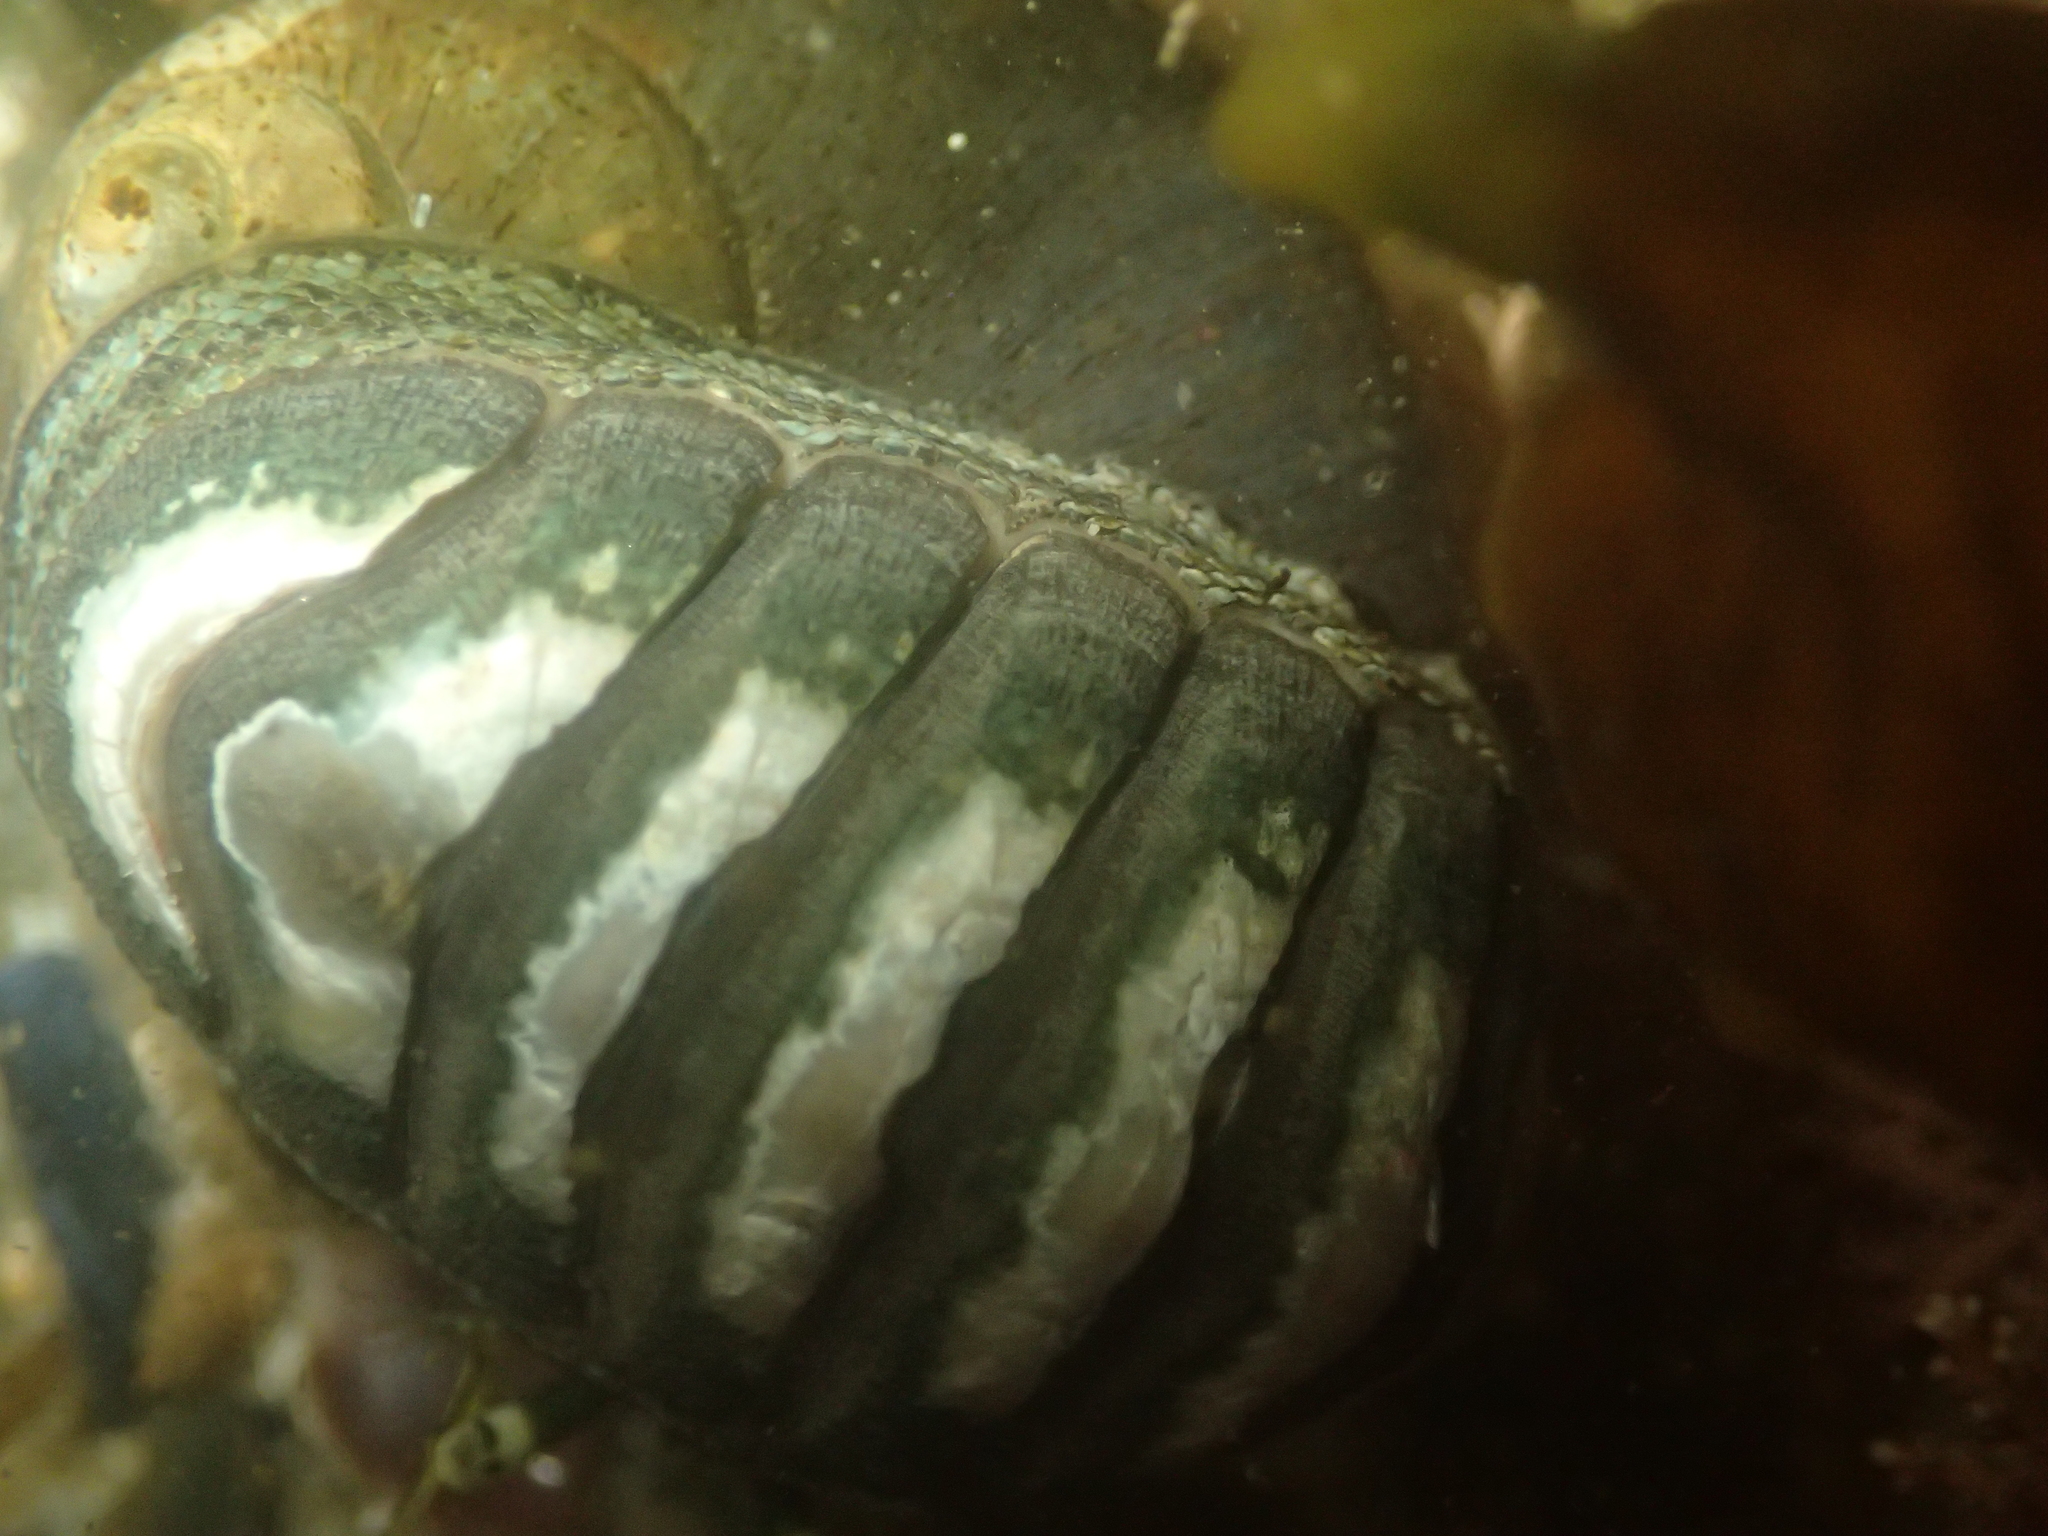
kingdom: Animalia
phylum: Mollusca
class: Polyplacophora
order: Chitonida
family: Chitonidae
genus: Chiton
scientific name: Chiton glaucus
